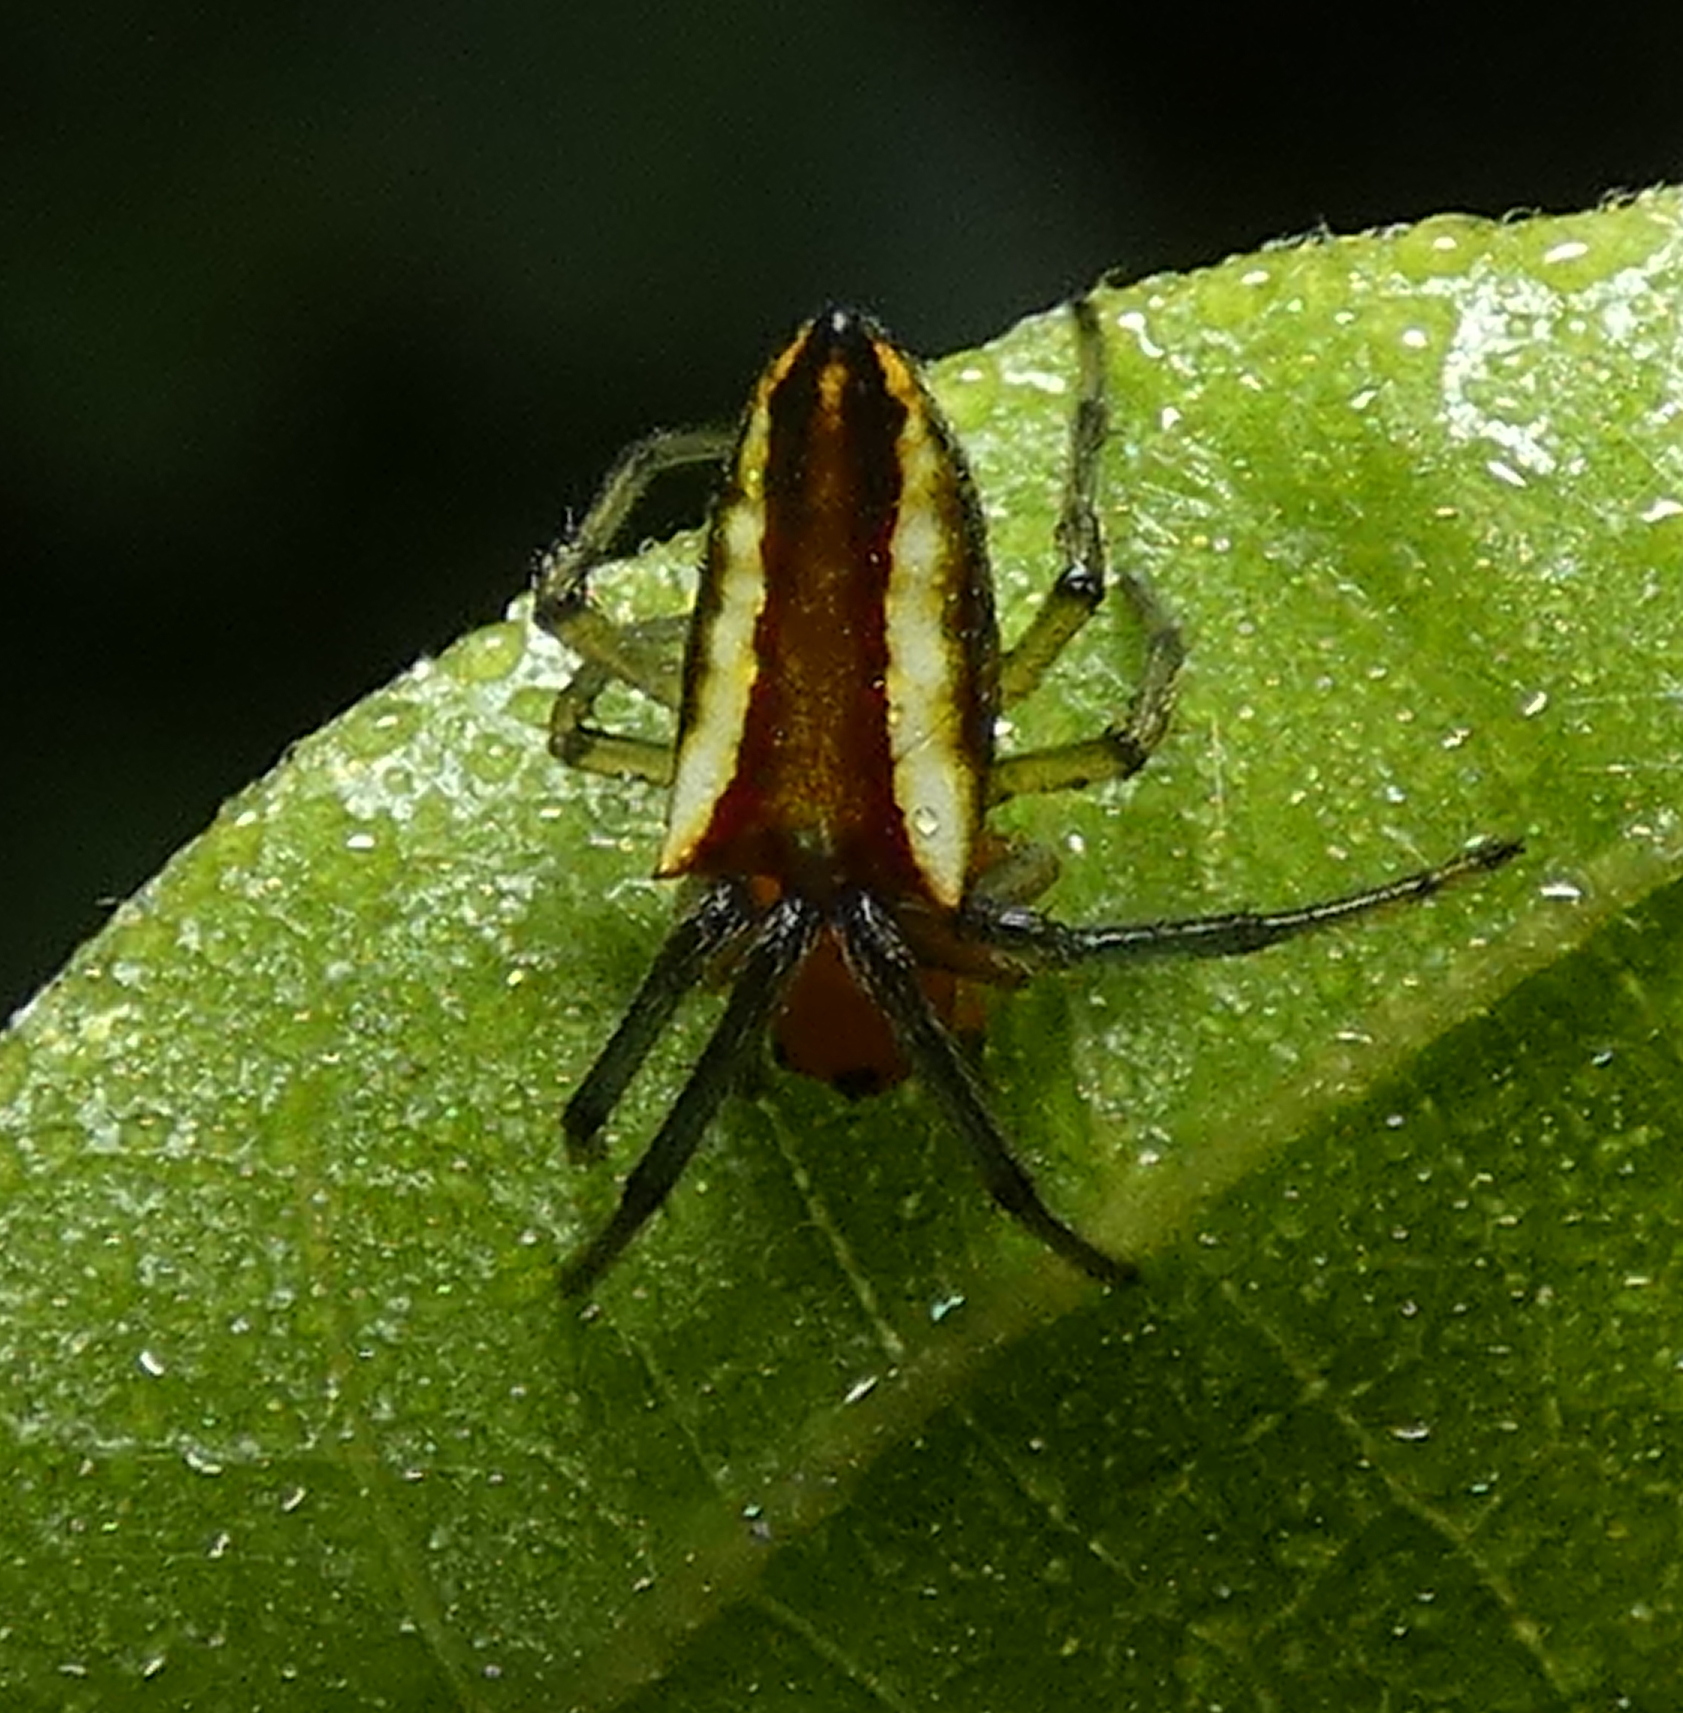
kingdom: Animalia
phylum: Arthropoda
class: Arachnida
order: Araneae
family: Araneidae
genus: Alpaida
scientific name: Alpaida bicornuta
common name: Orb weavers
